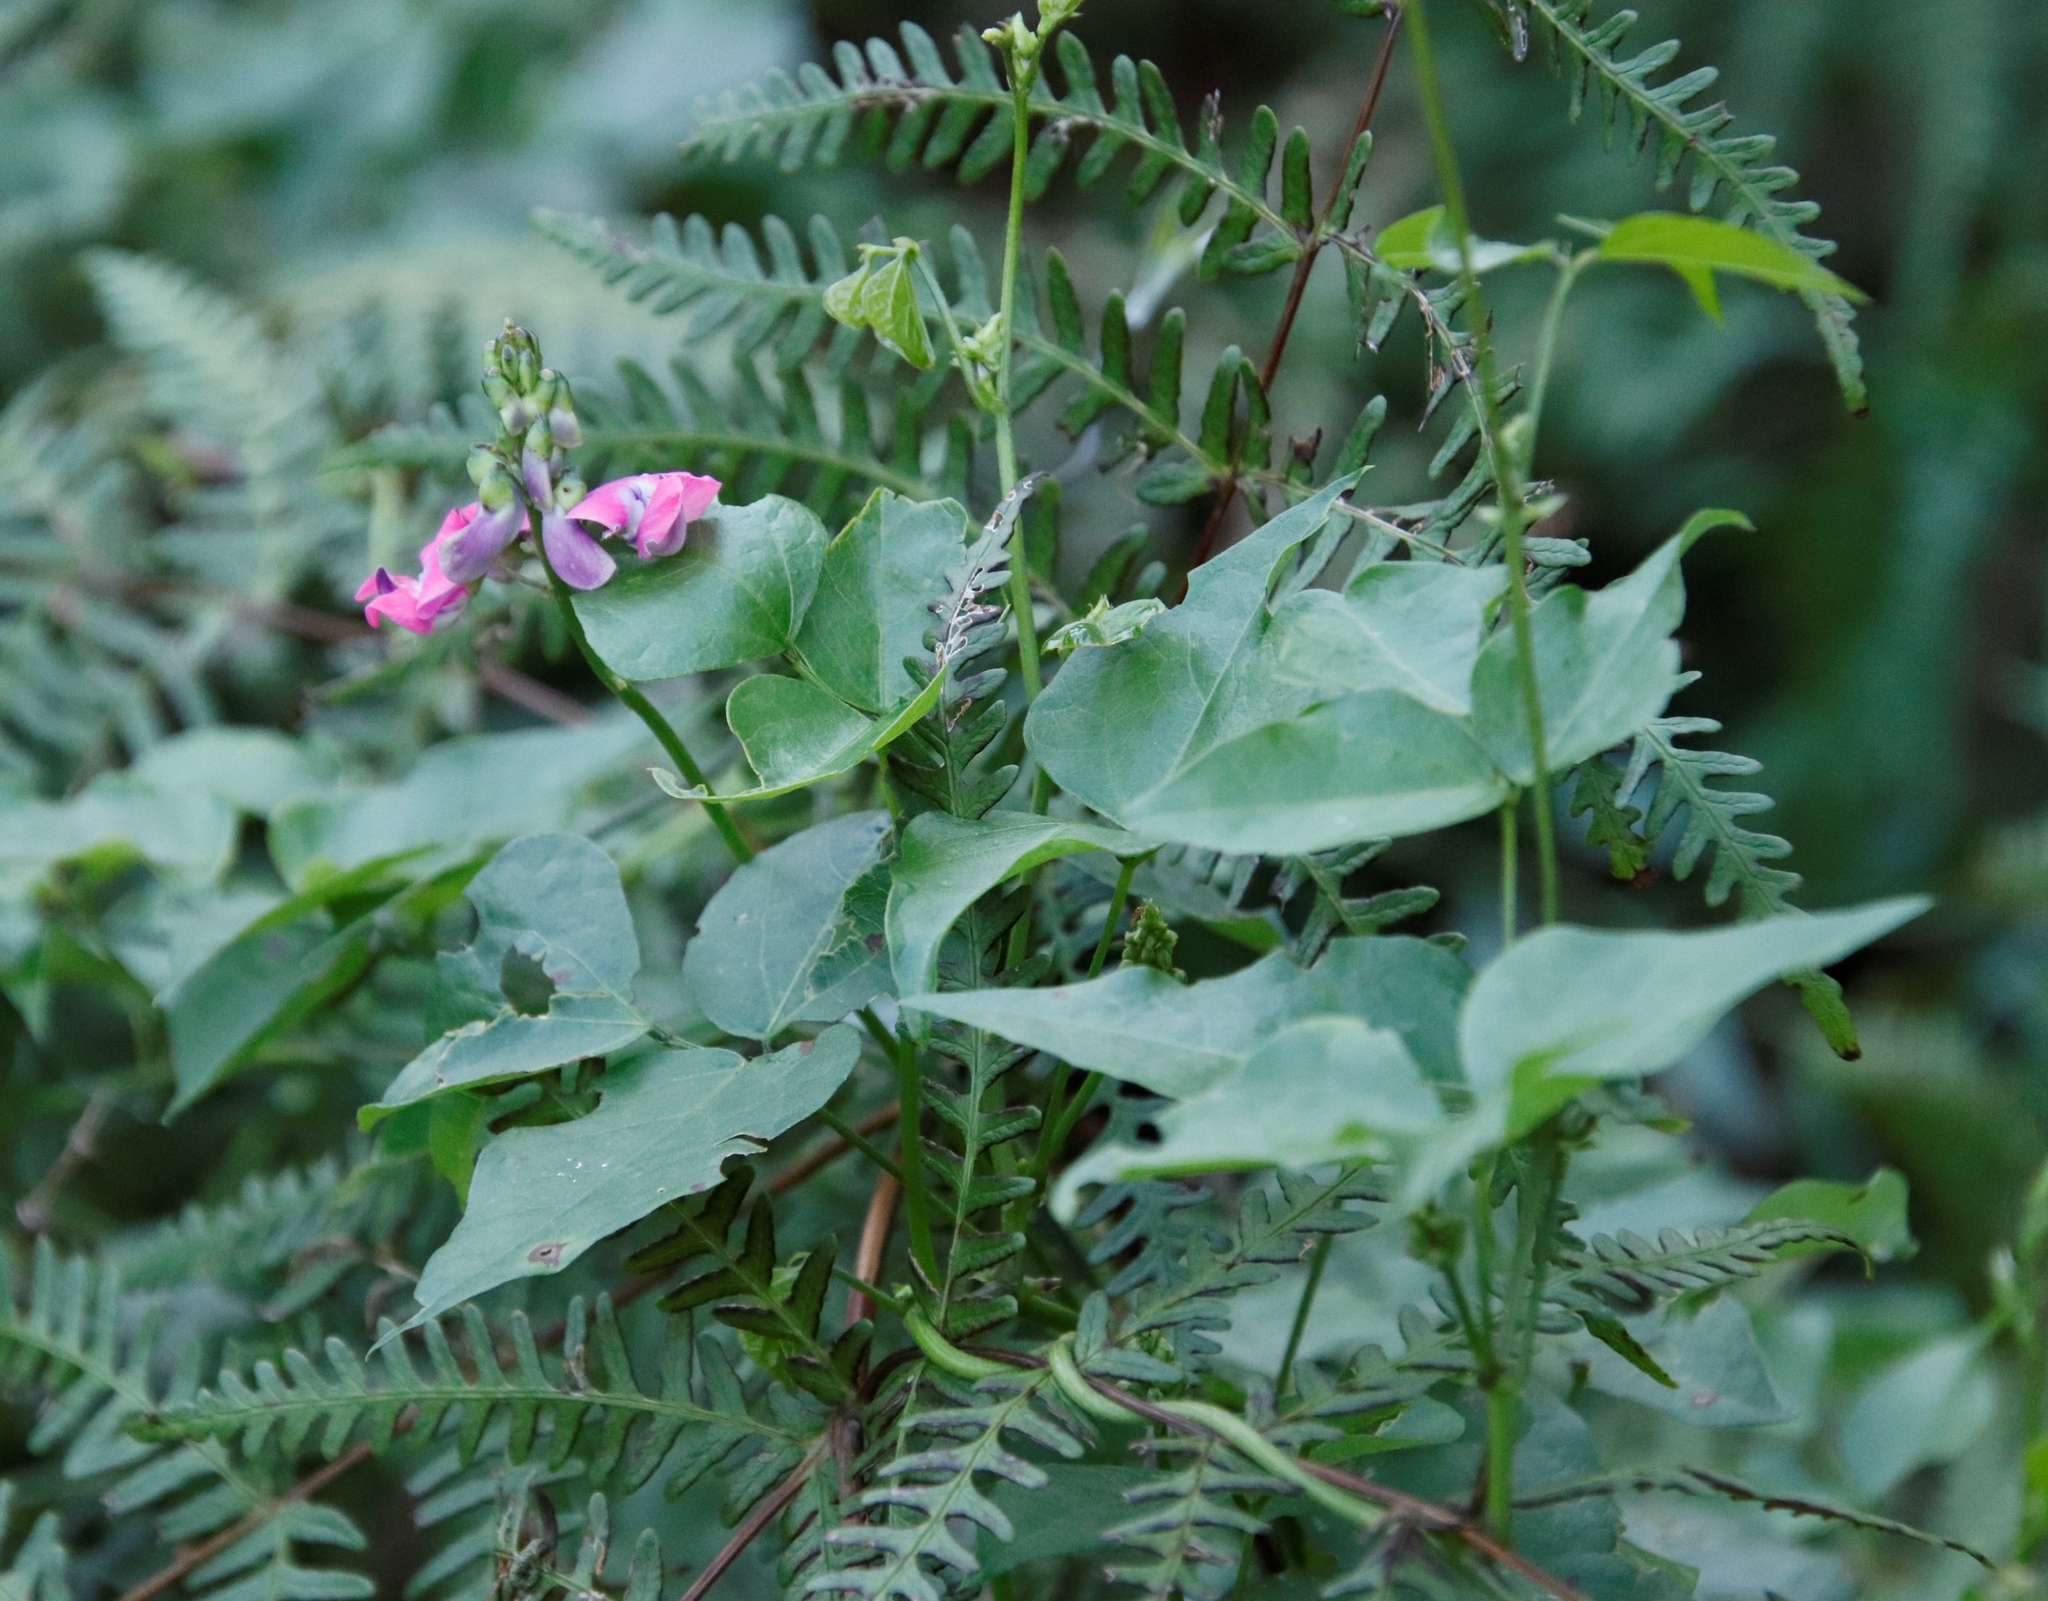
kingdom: Plantae
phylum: Tracheophyta
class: Magnoliopsida
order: Fabales
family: Fabaceae
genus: Dipogon
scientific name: Dipogon lignosus
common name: Okie bean
